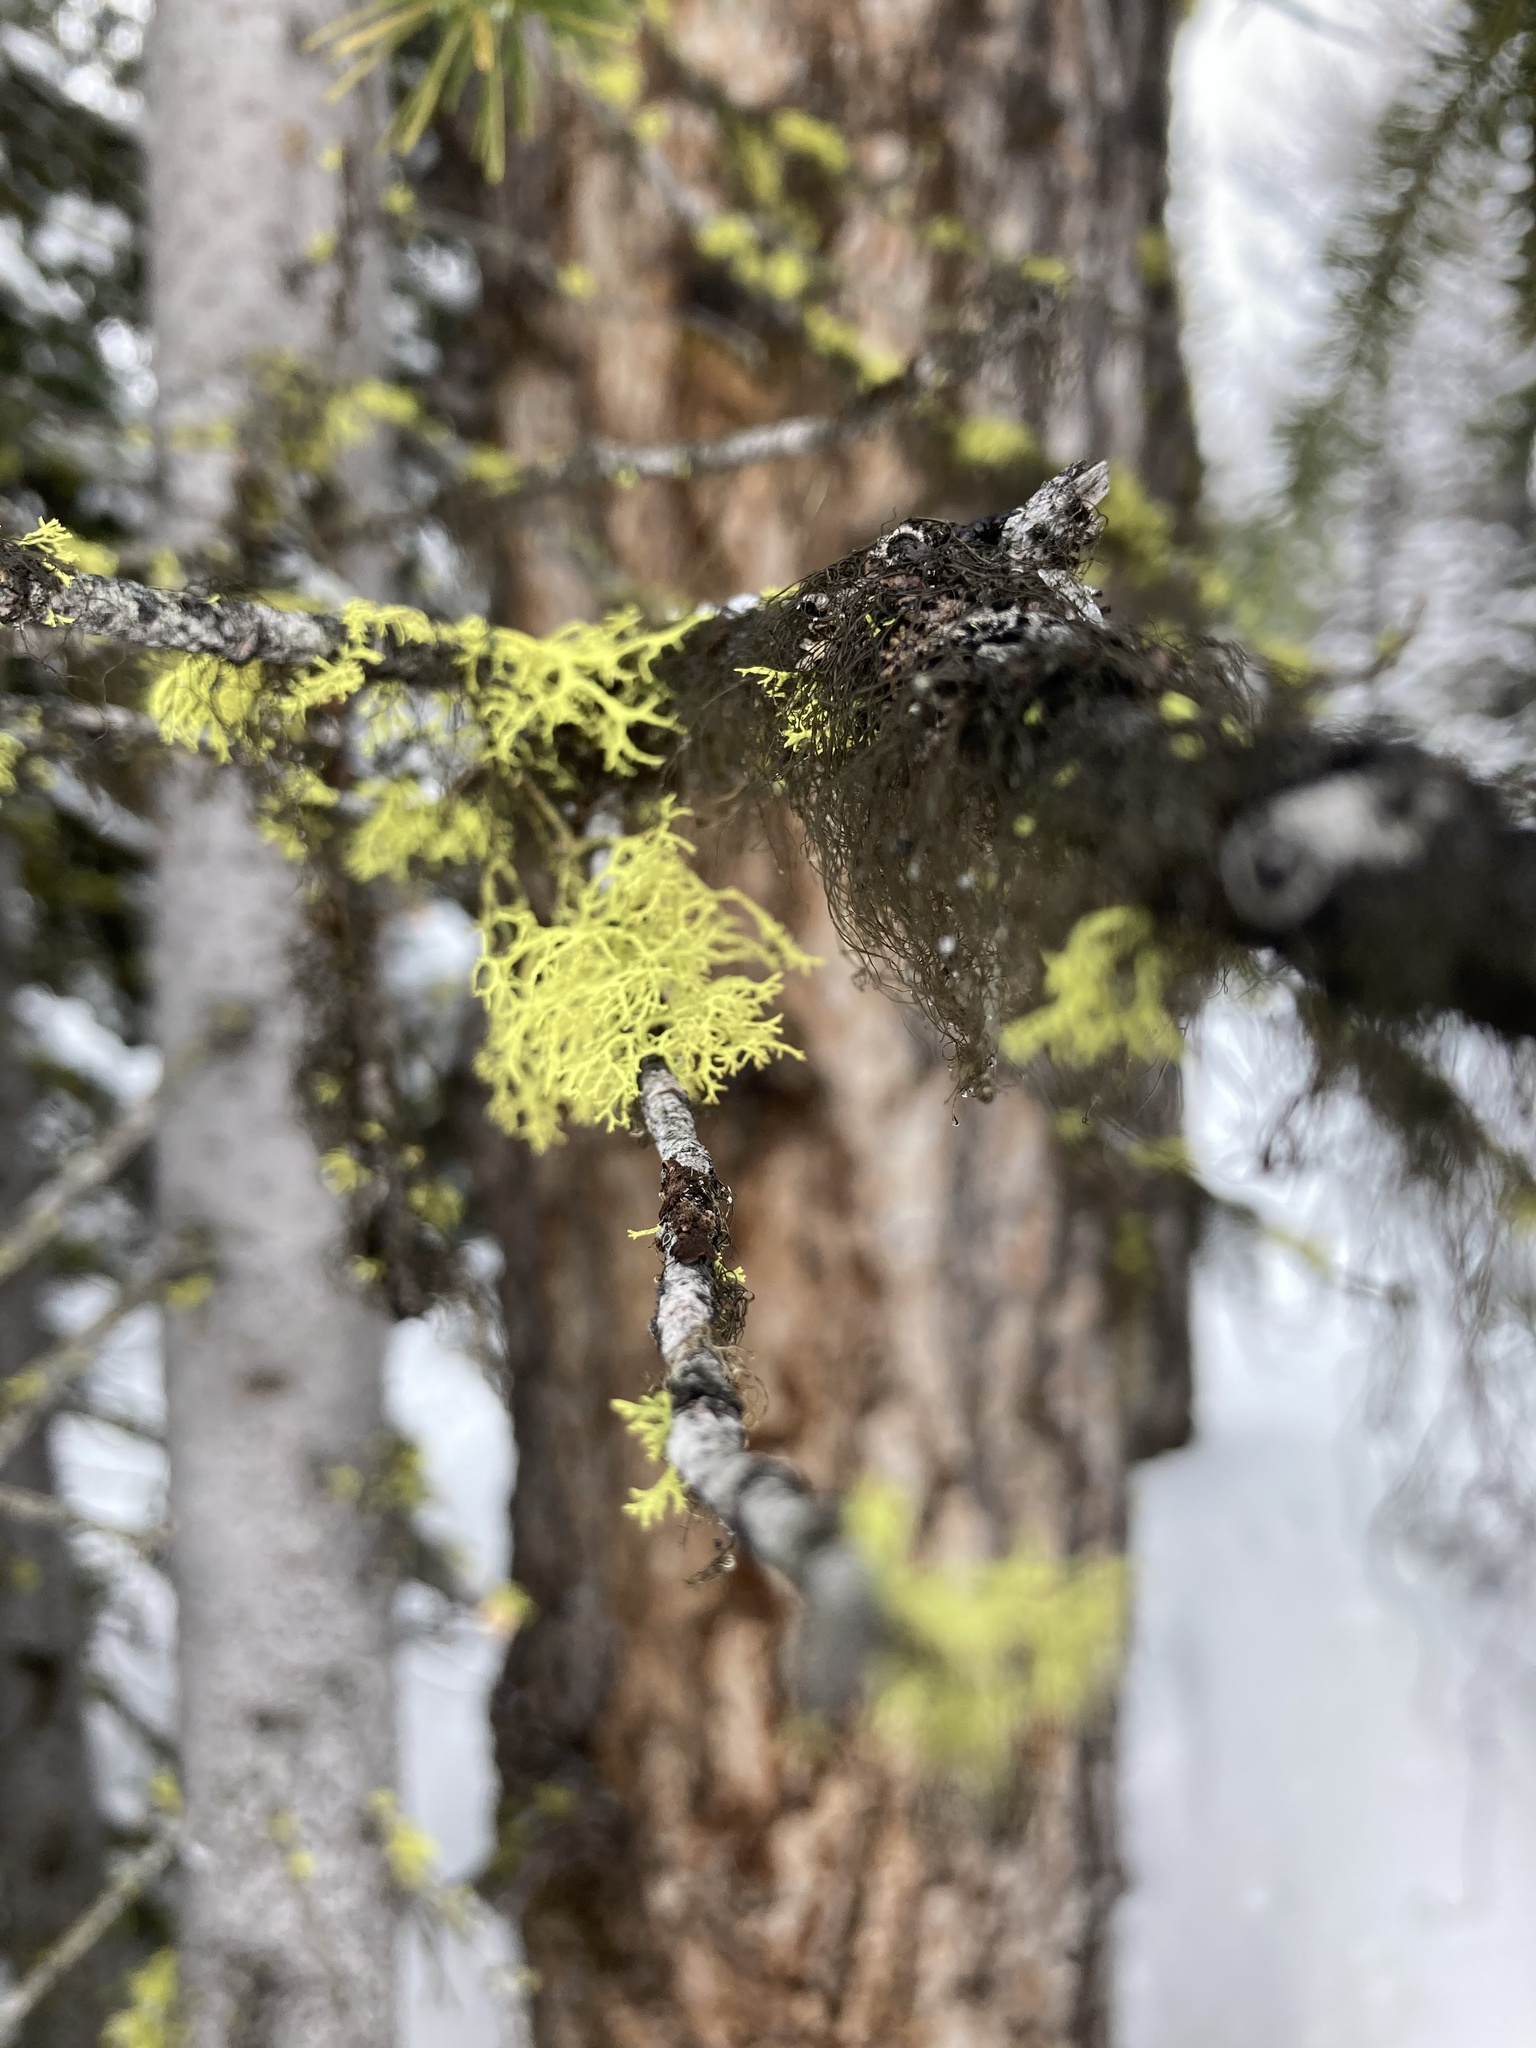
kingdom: Fungi
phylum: Ascomycota
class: Lecanoromycetes
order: Lecanorales
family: Parmeliaceae
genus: Letharia
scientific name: Letharia vulpina
